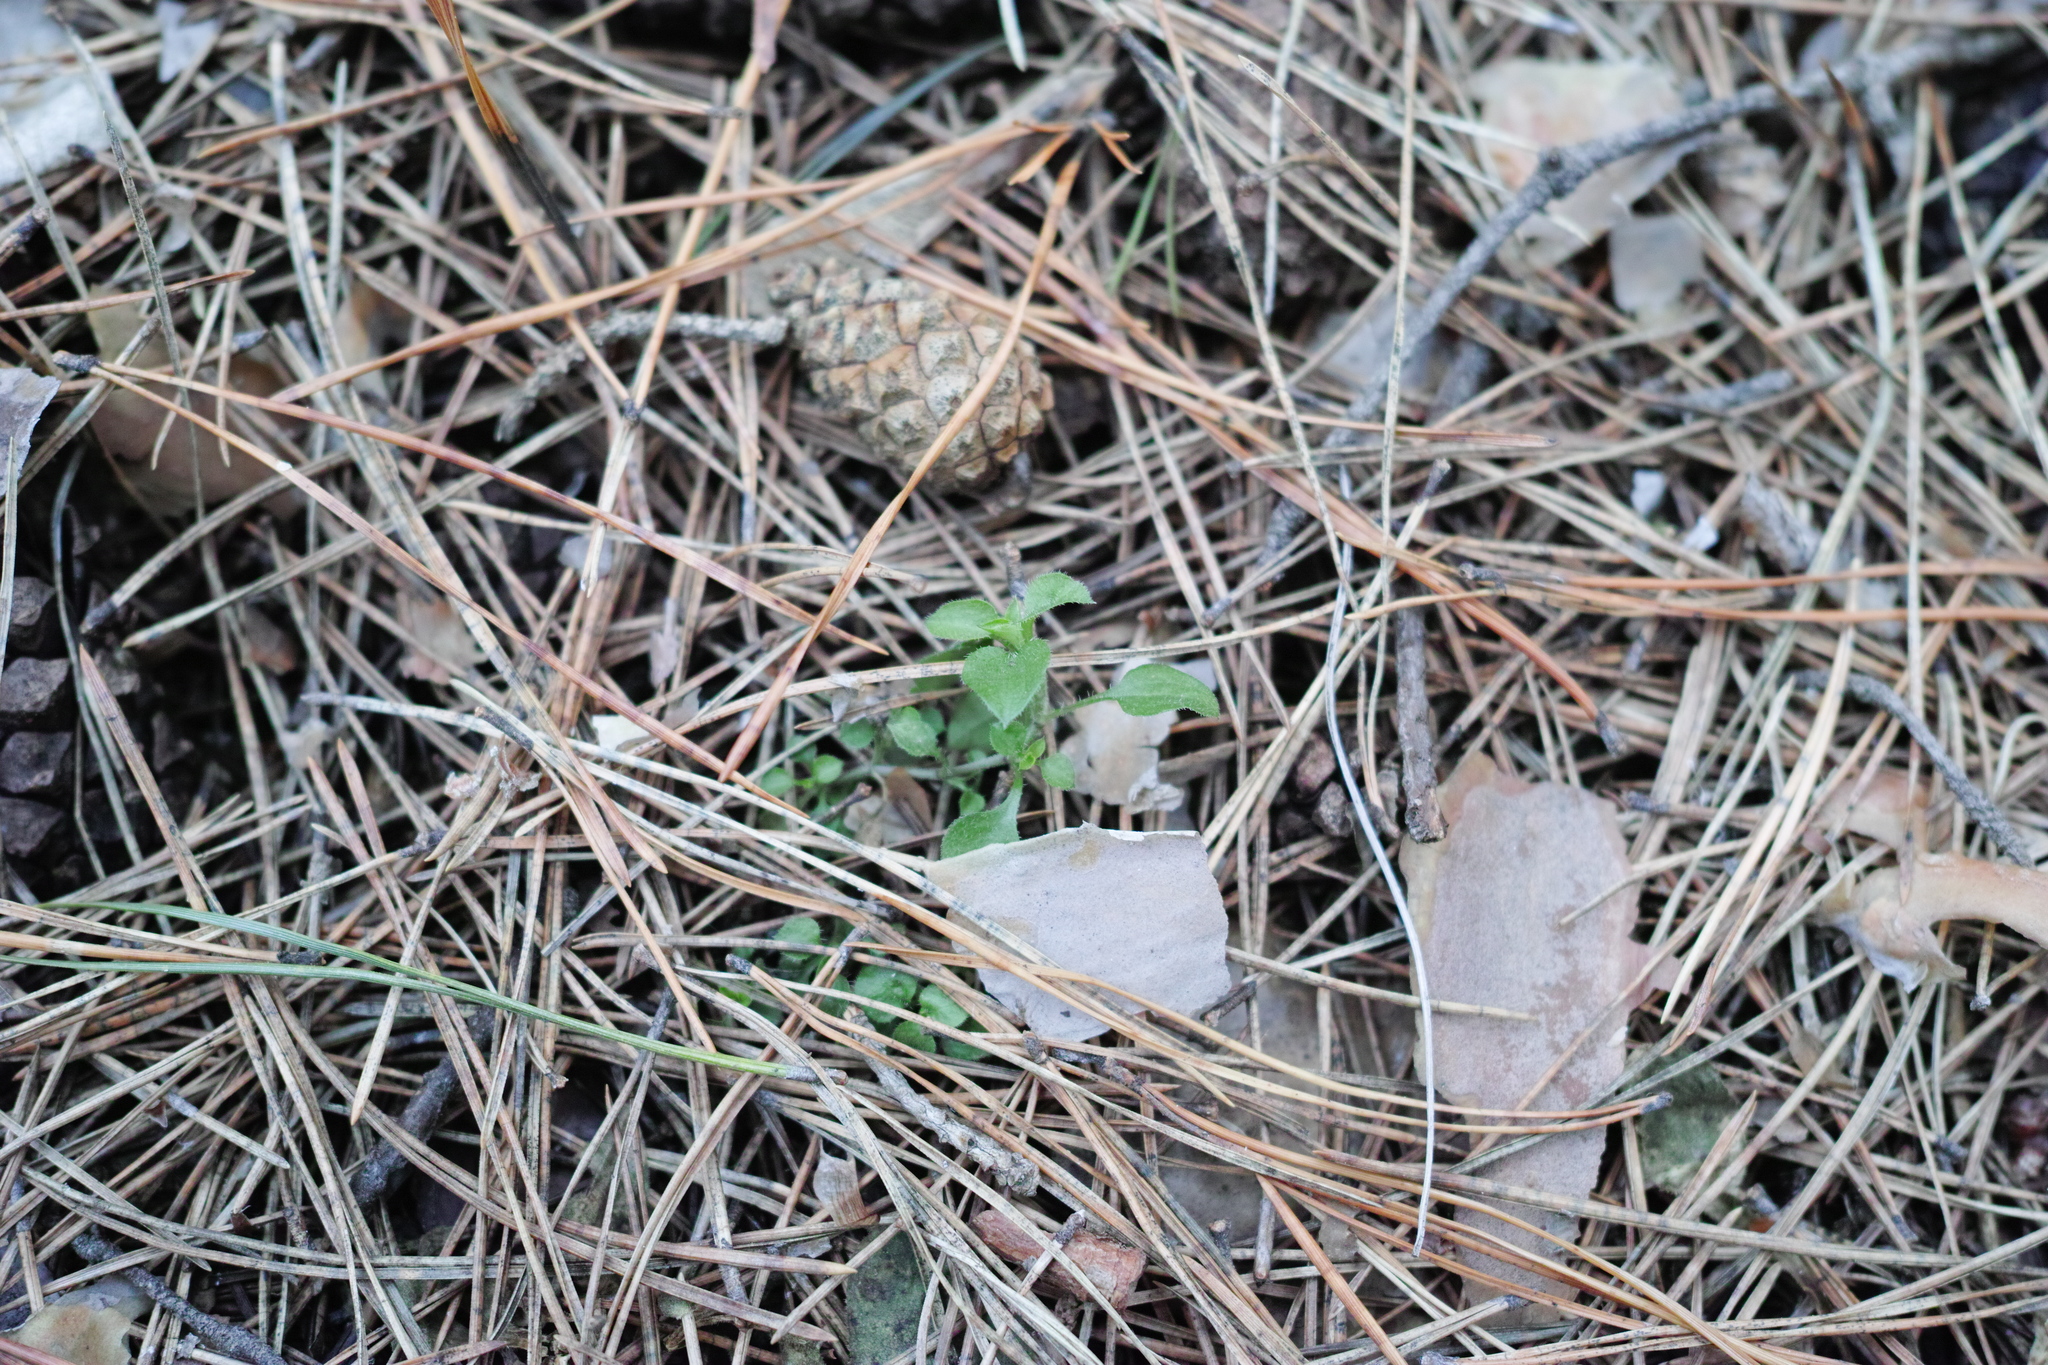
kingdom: Plantae
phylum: Tracheophyta
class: Magnoliopsida
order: Caryophyllales
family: Caryophyllaceae
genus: Moehringia
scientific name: Moehringia trinervia
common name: Three-nerved sandwort
